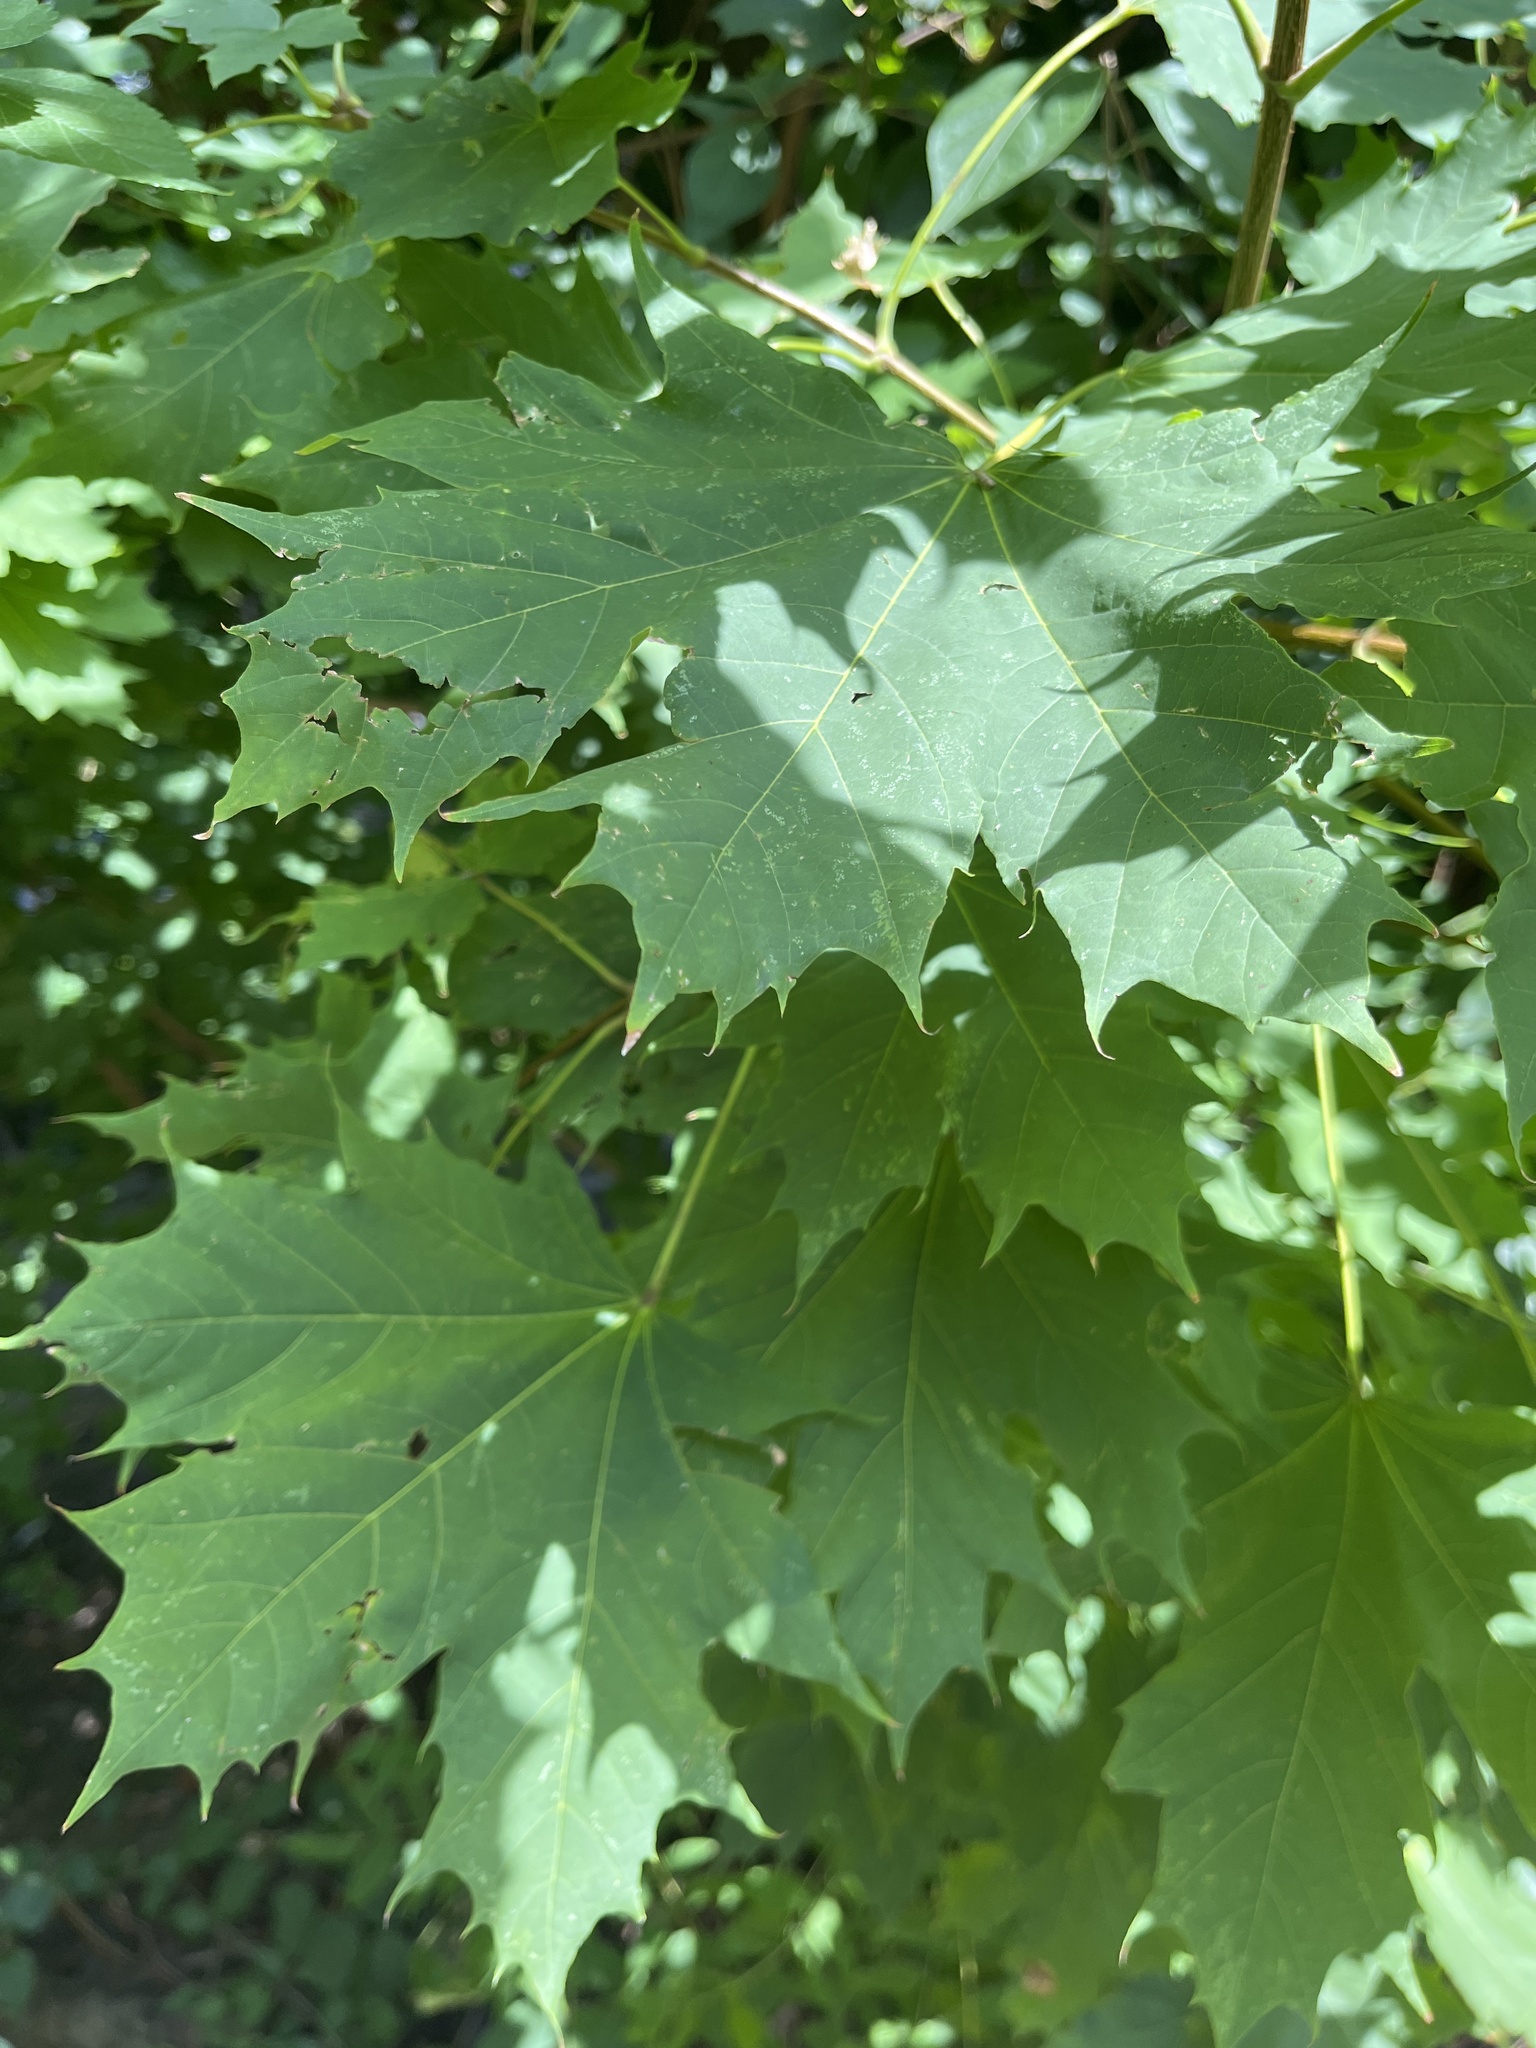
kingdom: Plantae
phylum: Tracheophyta
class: Magnoliopsida
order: Sapindales
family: Sapindaceae
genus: Acer
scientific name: Acer platanoides
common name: Norway maple
